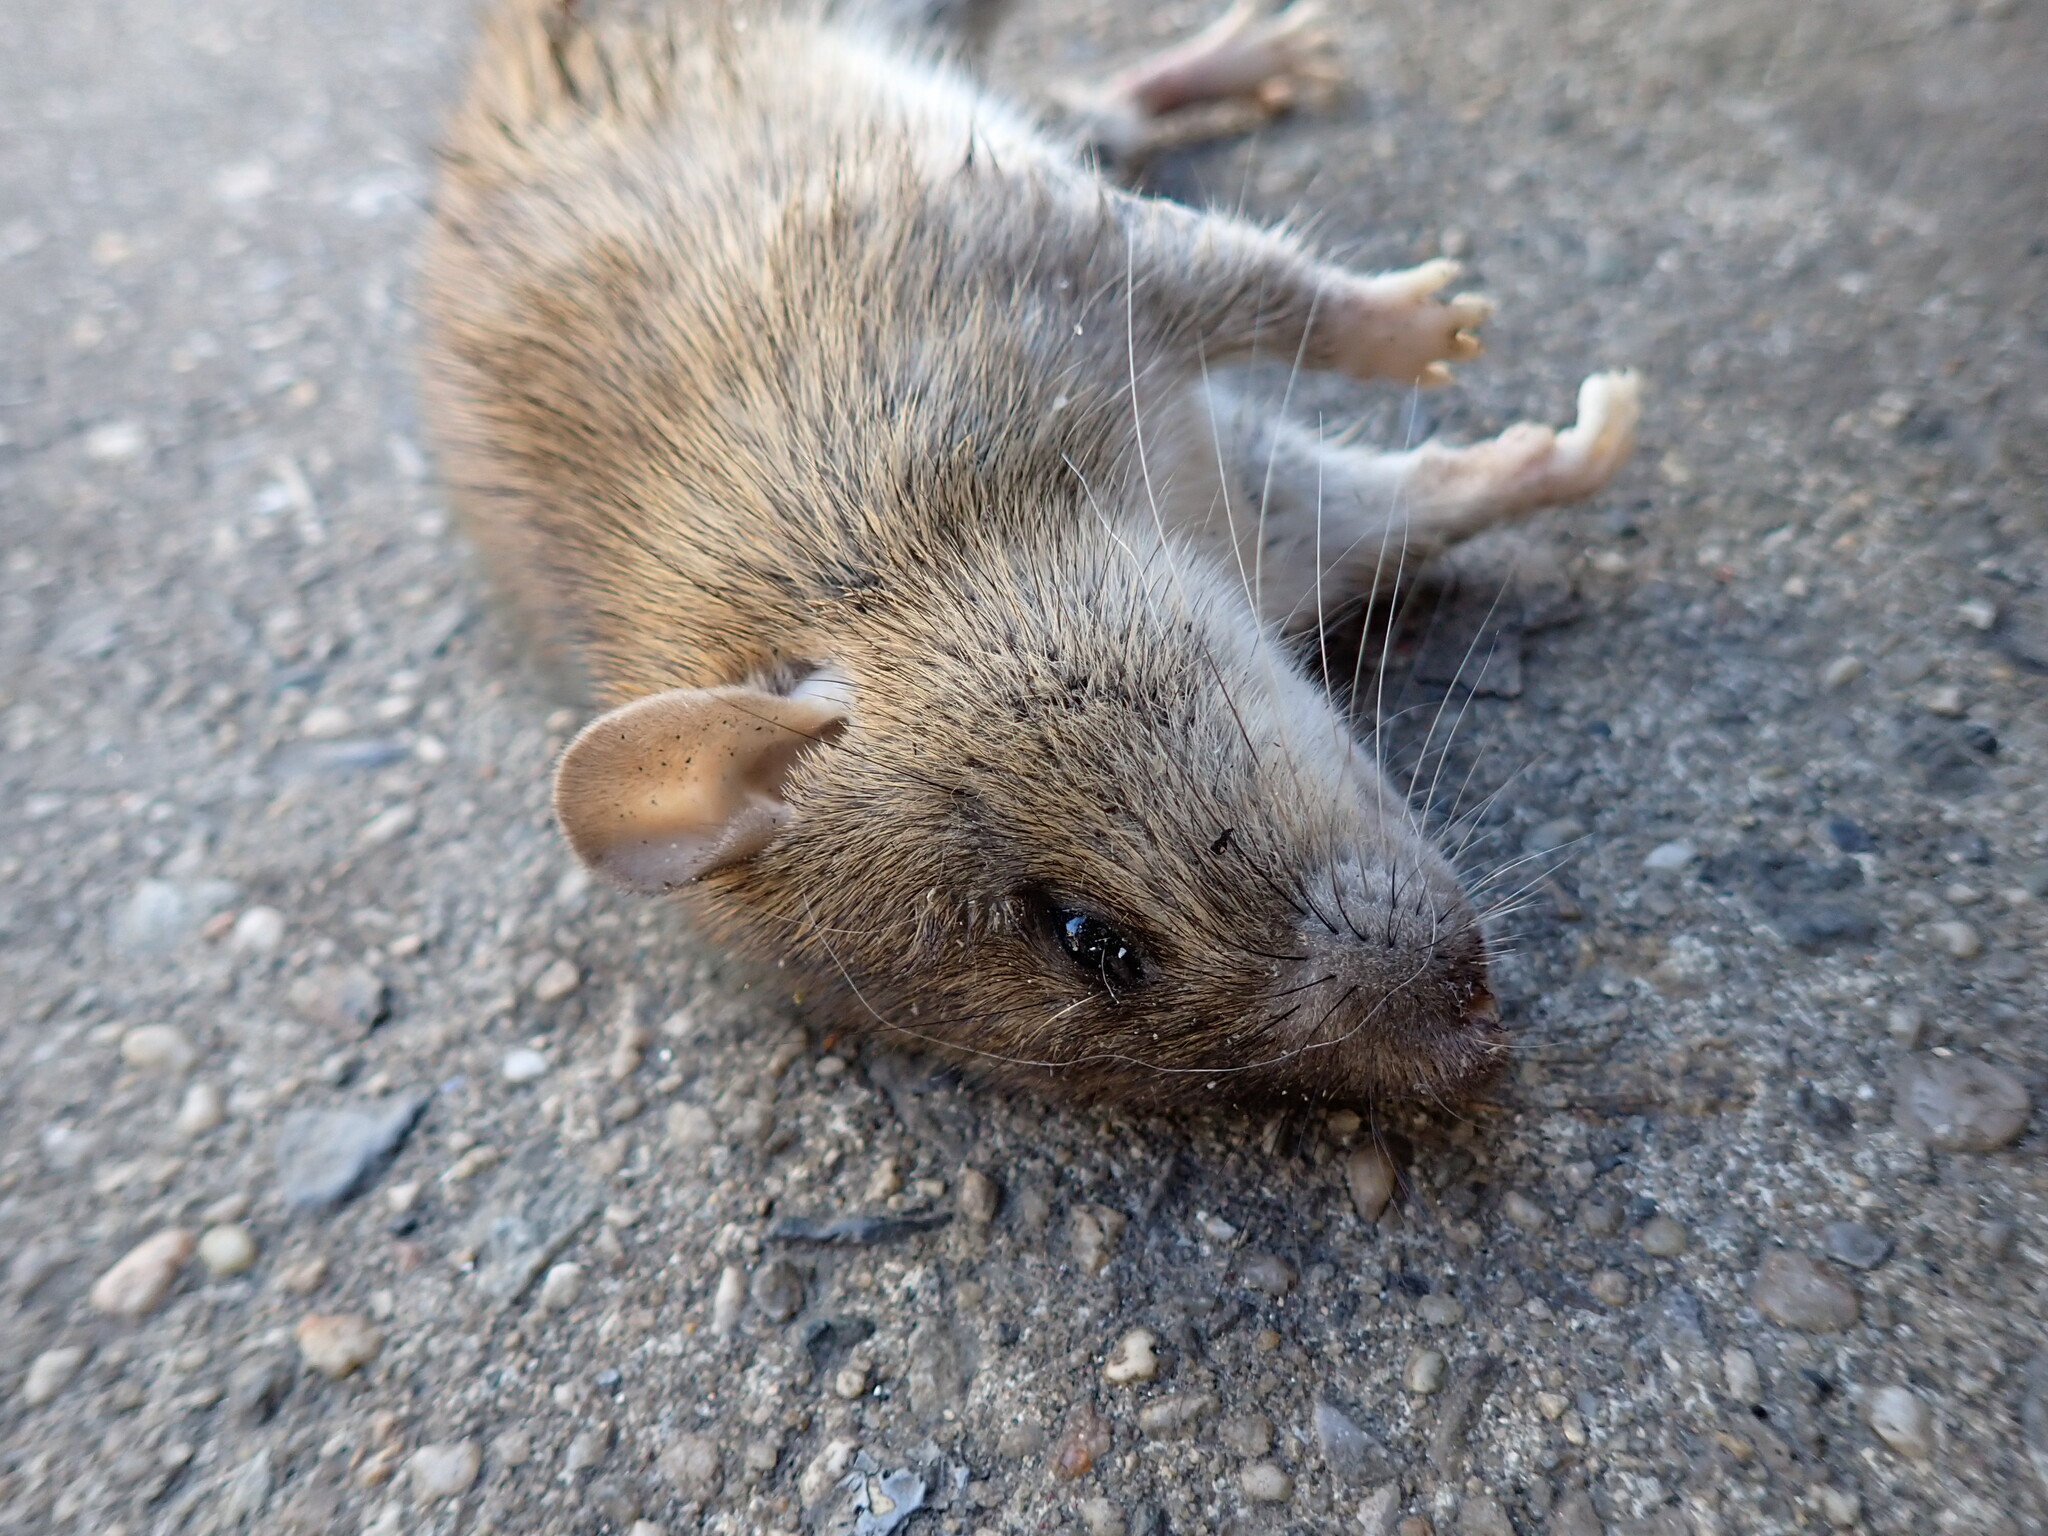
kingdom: Animalia
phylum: Chordata
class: Mammalia
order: Rodentia
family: Muridae
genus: Rattus
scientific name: Rattus norvegicus
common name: Brown rat
